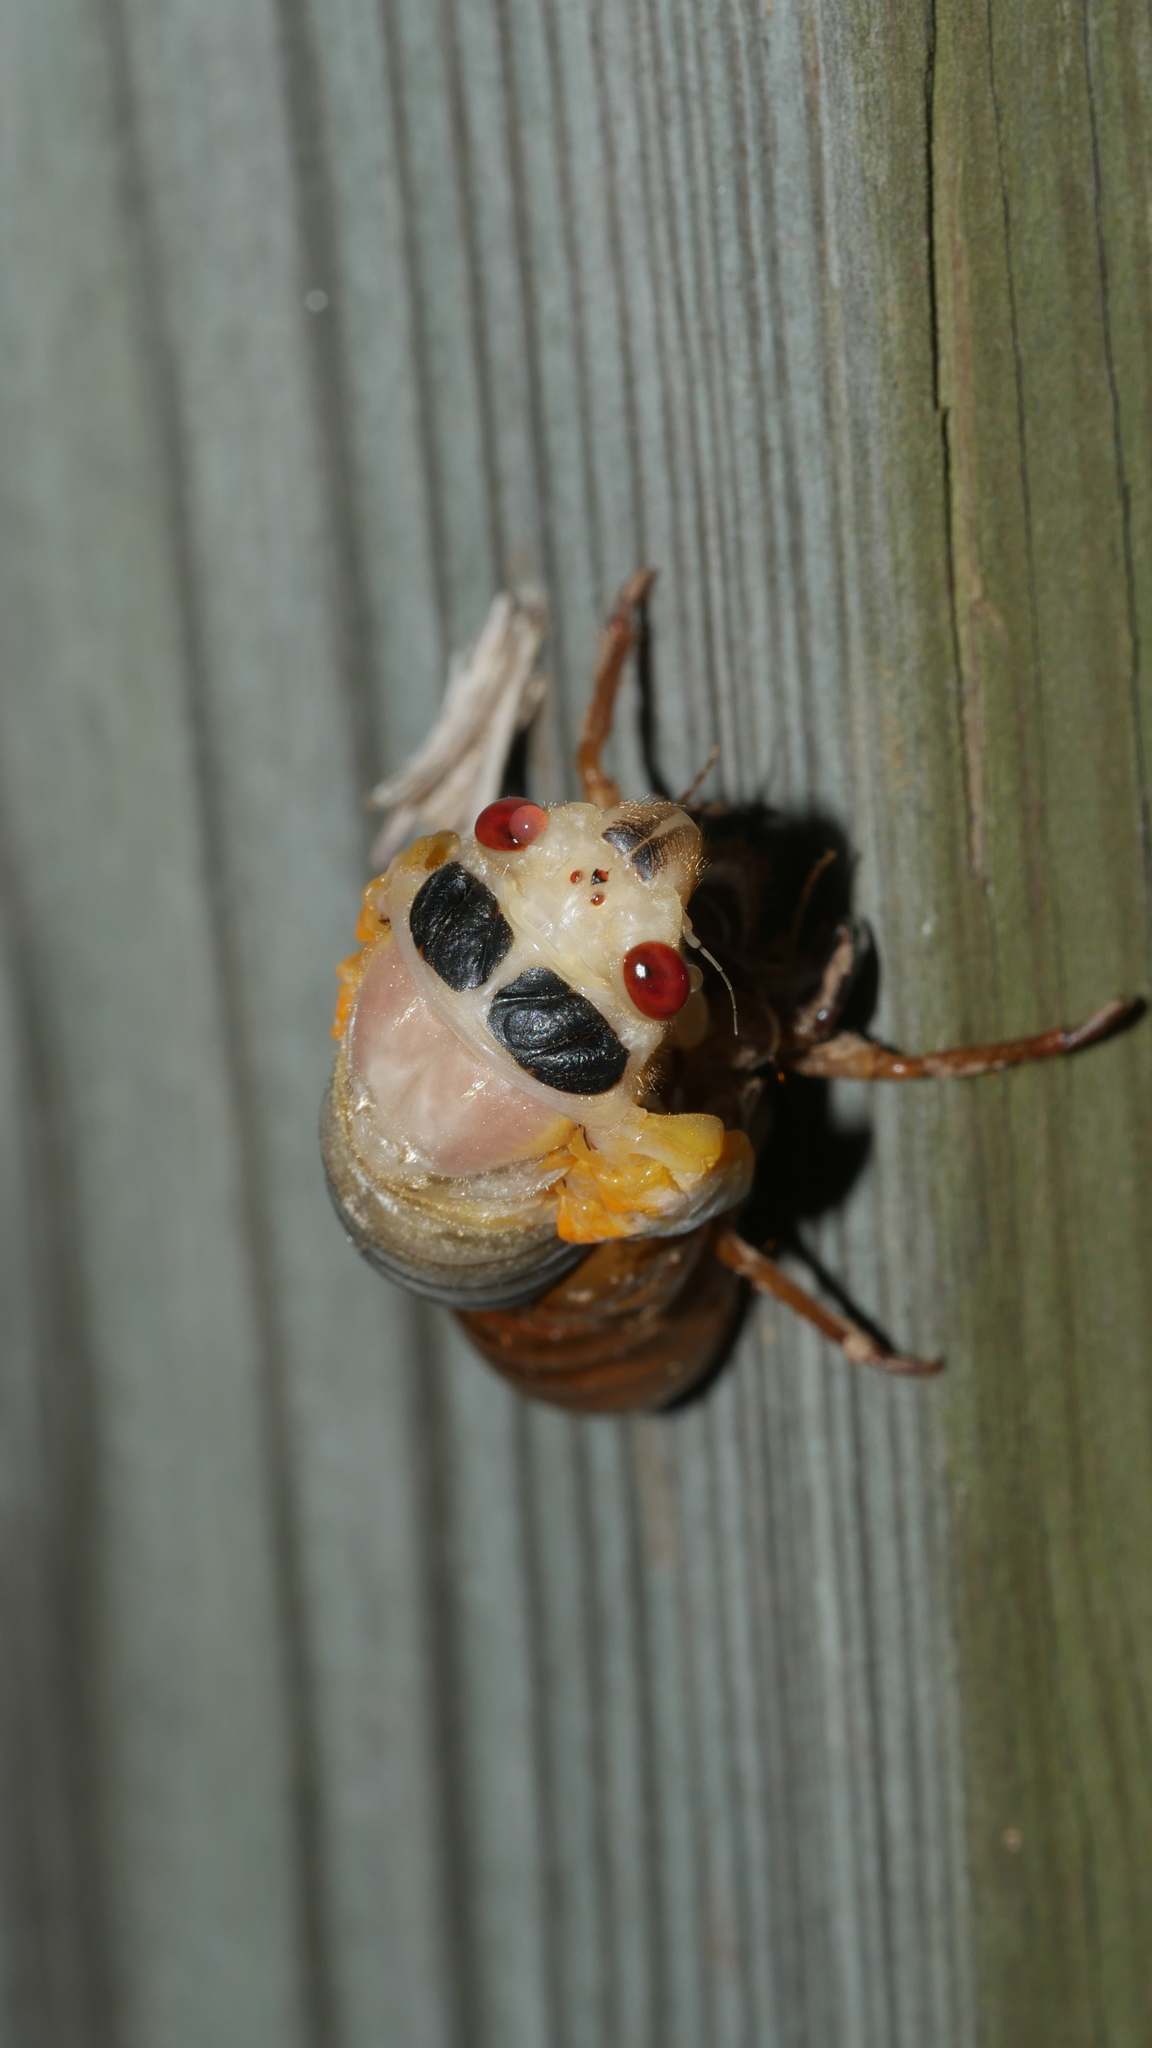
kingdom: Animalia
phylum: Arthropoda
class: Insecta
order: Hemiptera
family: Cicadidae
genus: Magicicada
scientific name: Magicicada
